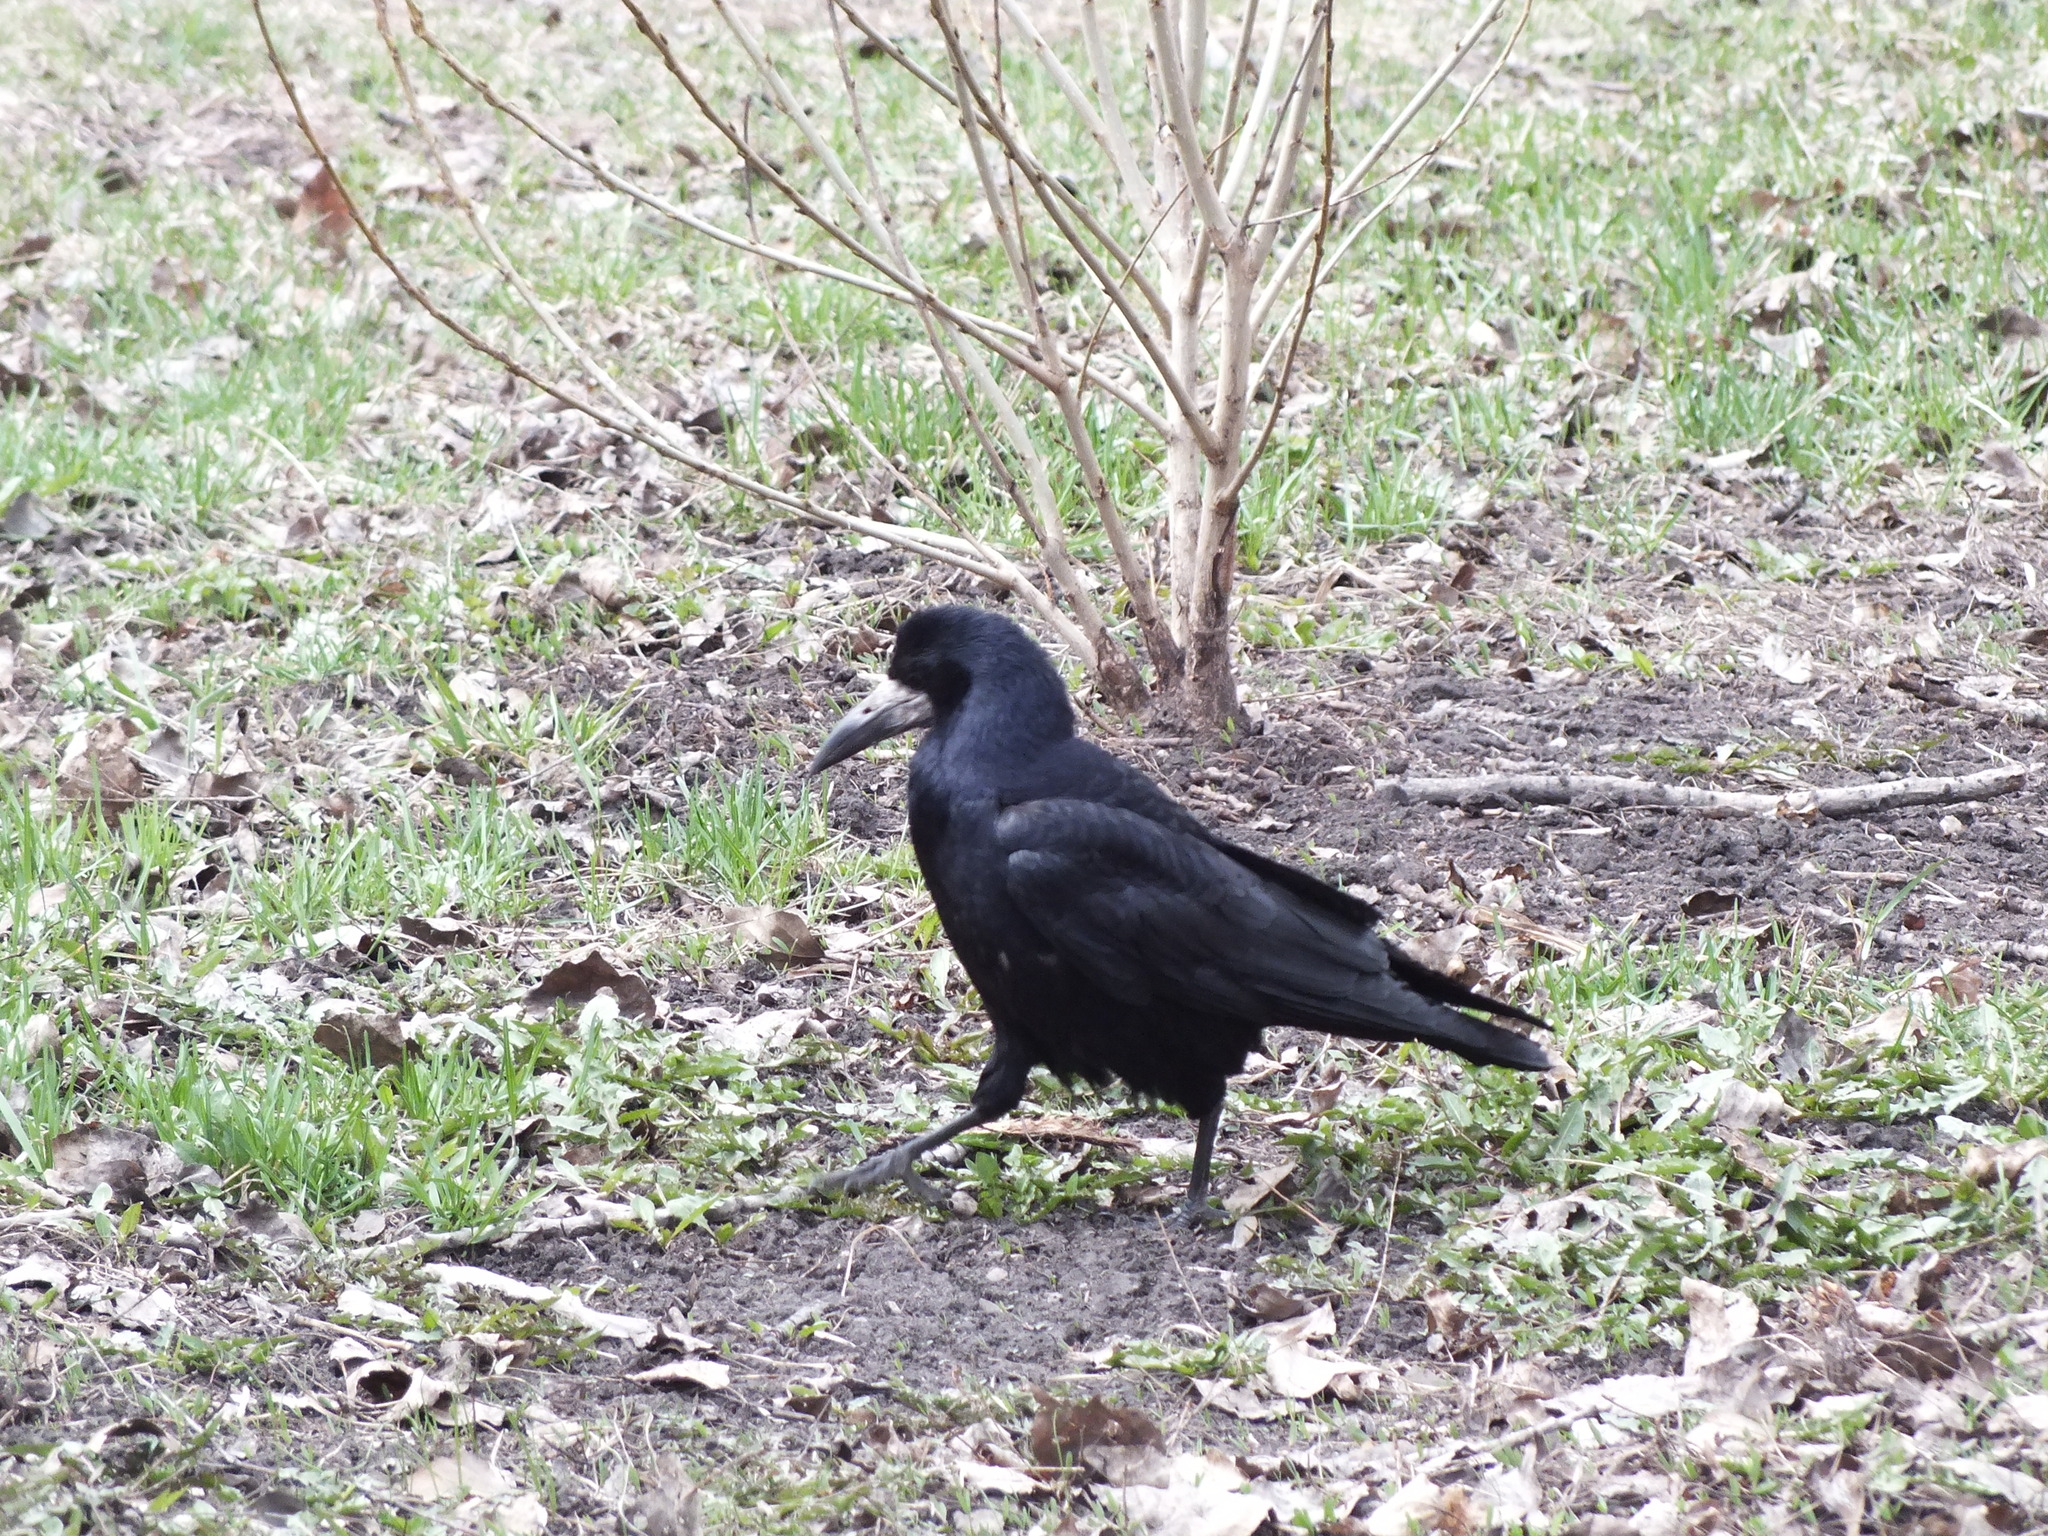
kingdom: Animalia
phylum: Chordata
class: Aves
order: Passeriformes
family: Corvidae
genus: Corvus
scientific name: Corvus frugilegus
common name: Rook
